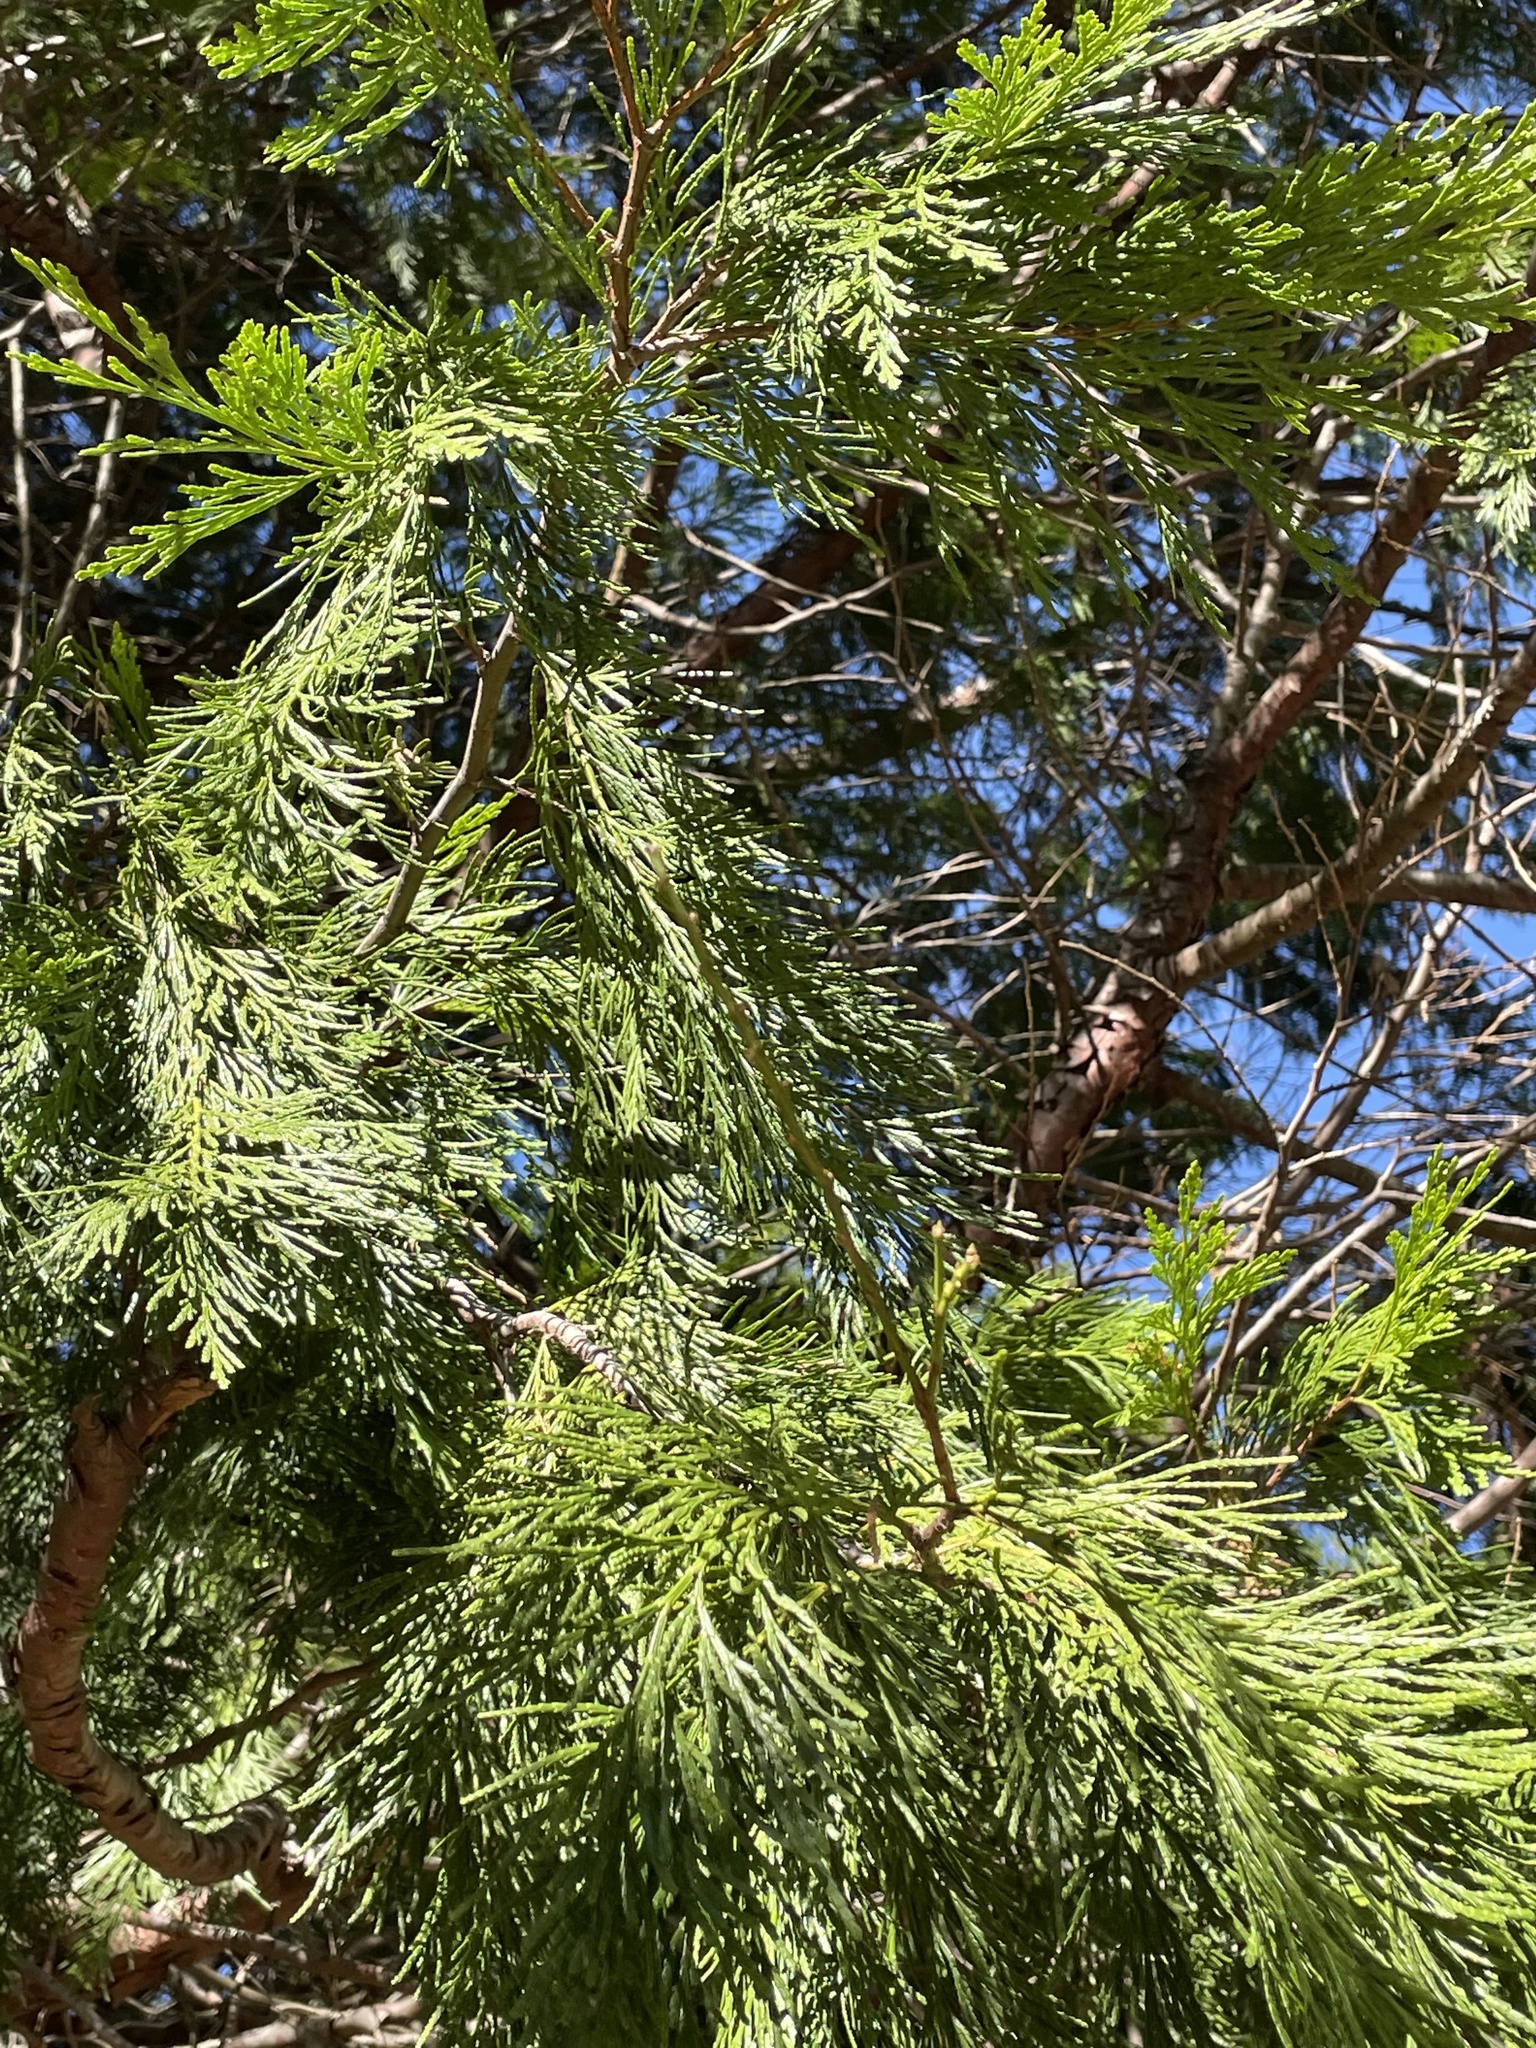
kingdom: Plantae
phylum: Tracheophyta
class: Pinopsida
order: Pinales
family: Cupressaceae
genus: Calocedrus
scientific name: Calocedrus decurrens
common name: Californian incense-cedar
